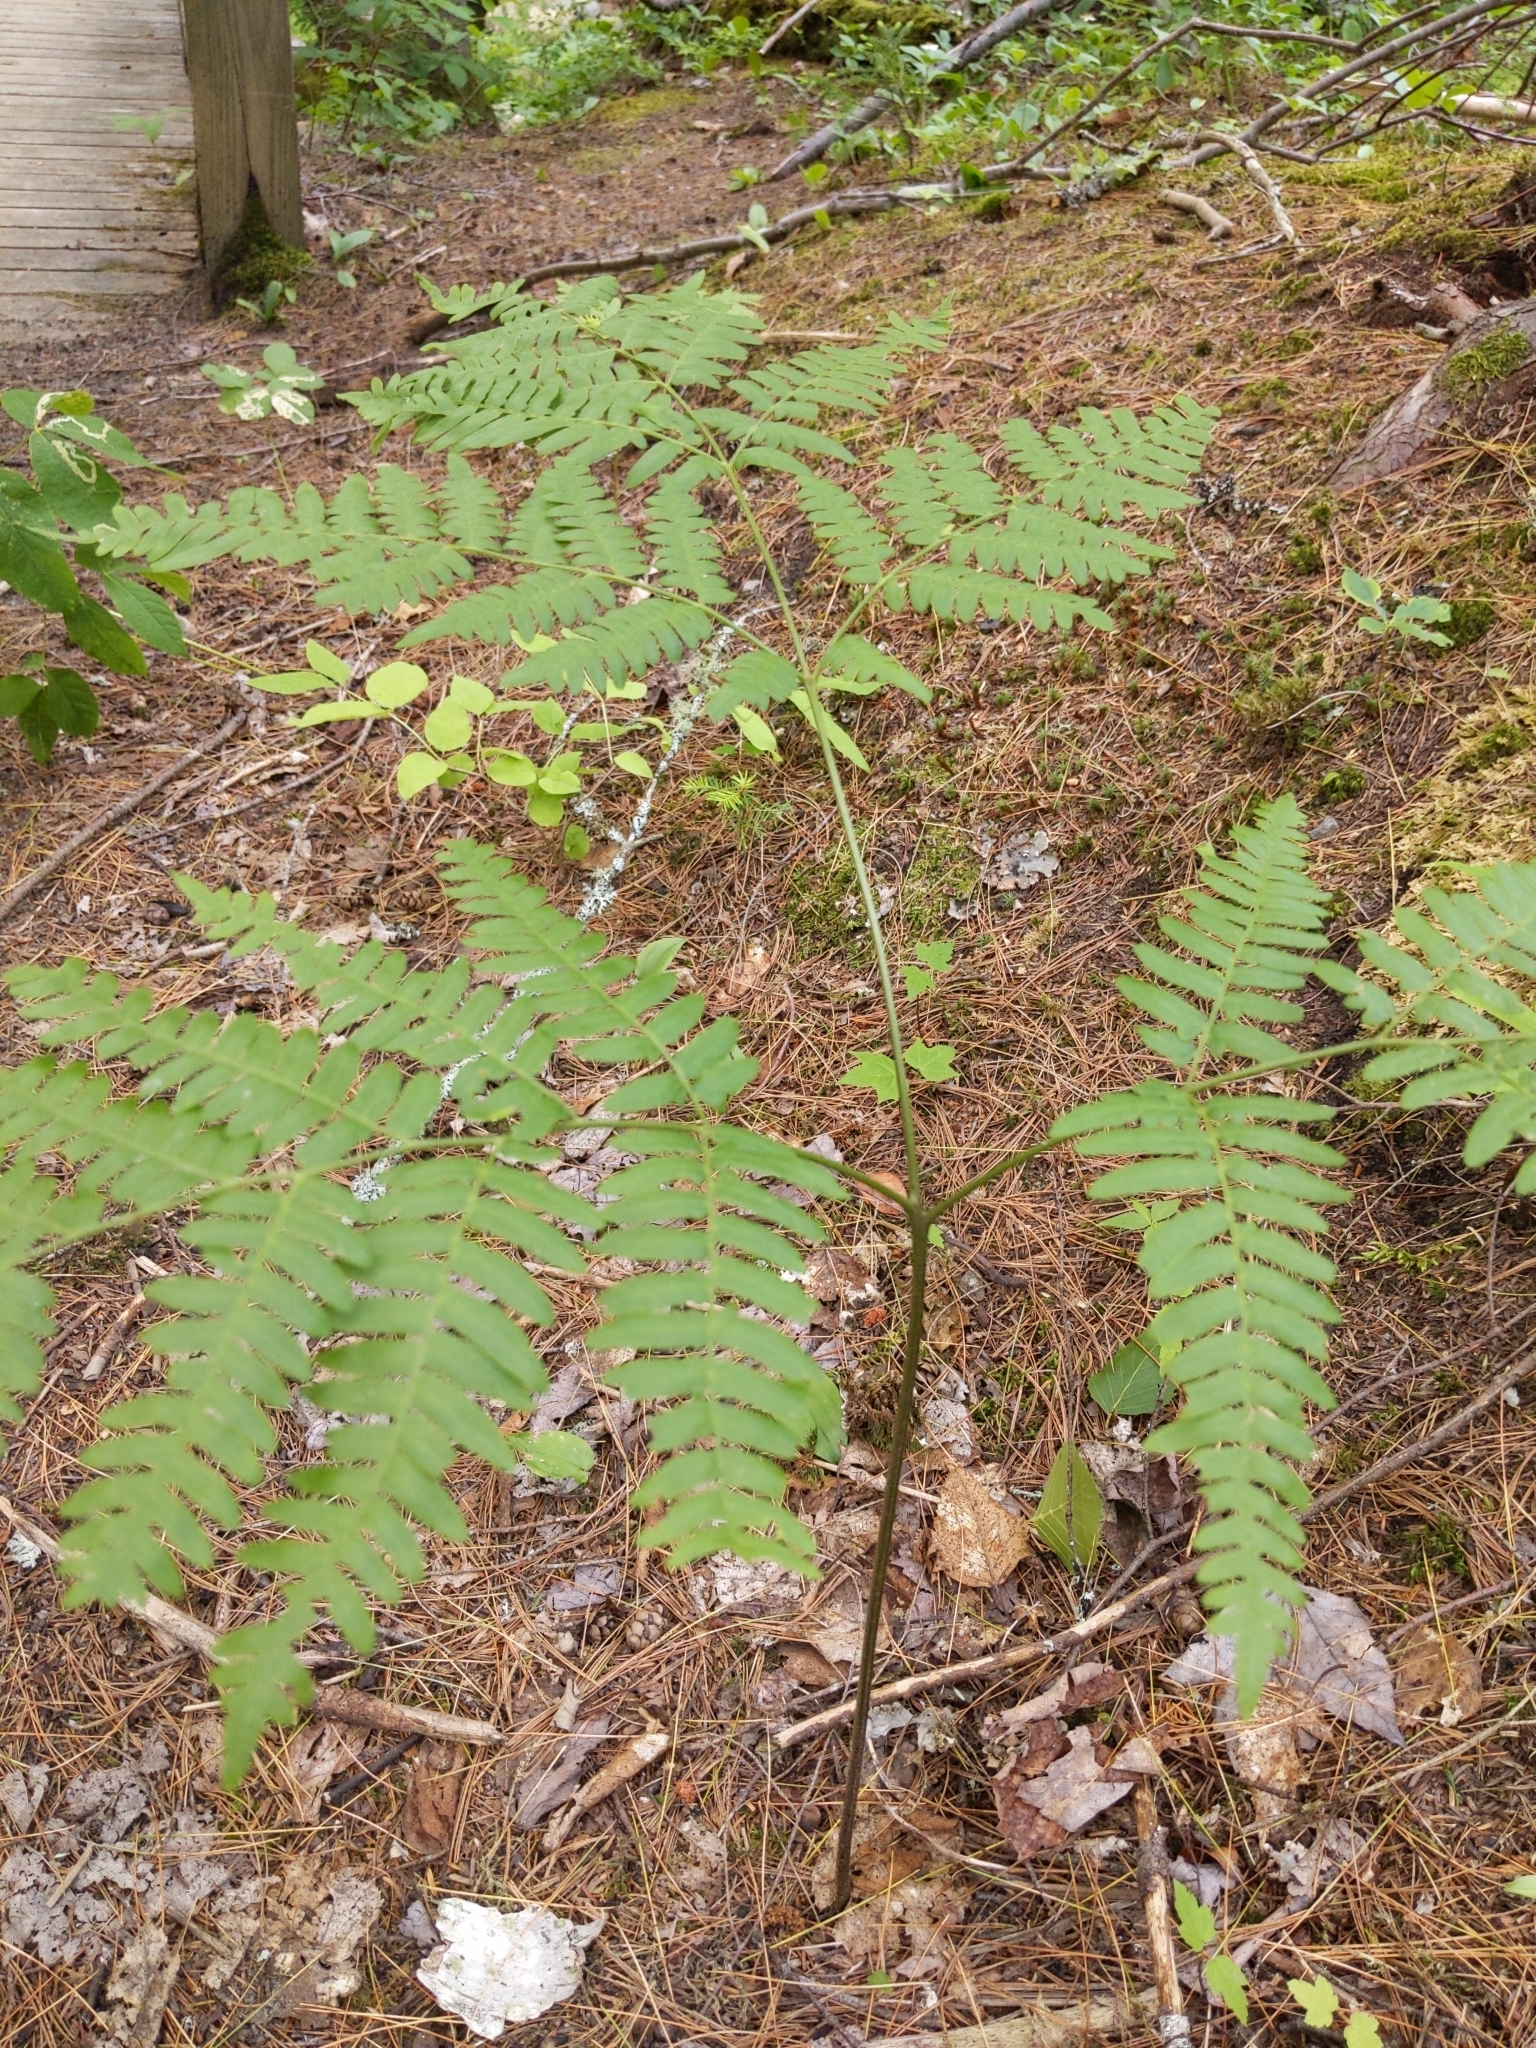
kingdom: Plantae
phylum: Tracheophyta
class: Polypodiopsida
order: Polypodiales
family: Dennstaedtiaceae
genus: Pteridium
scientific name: Pteridium aquilinum
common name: Bracken
